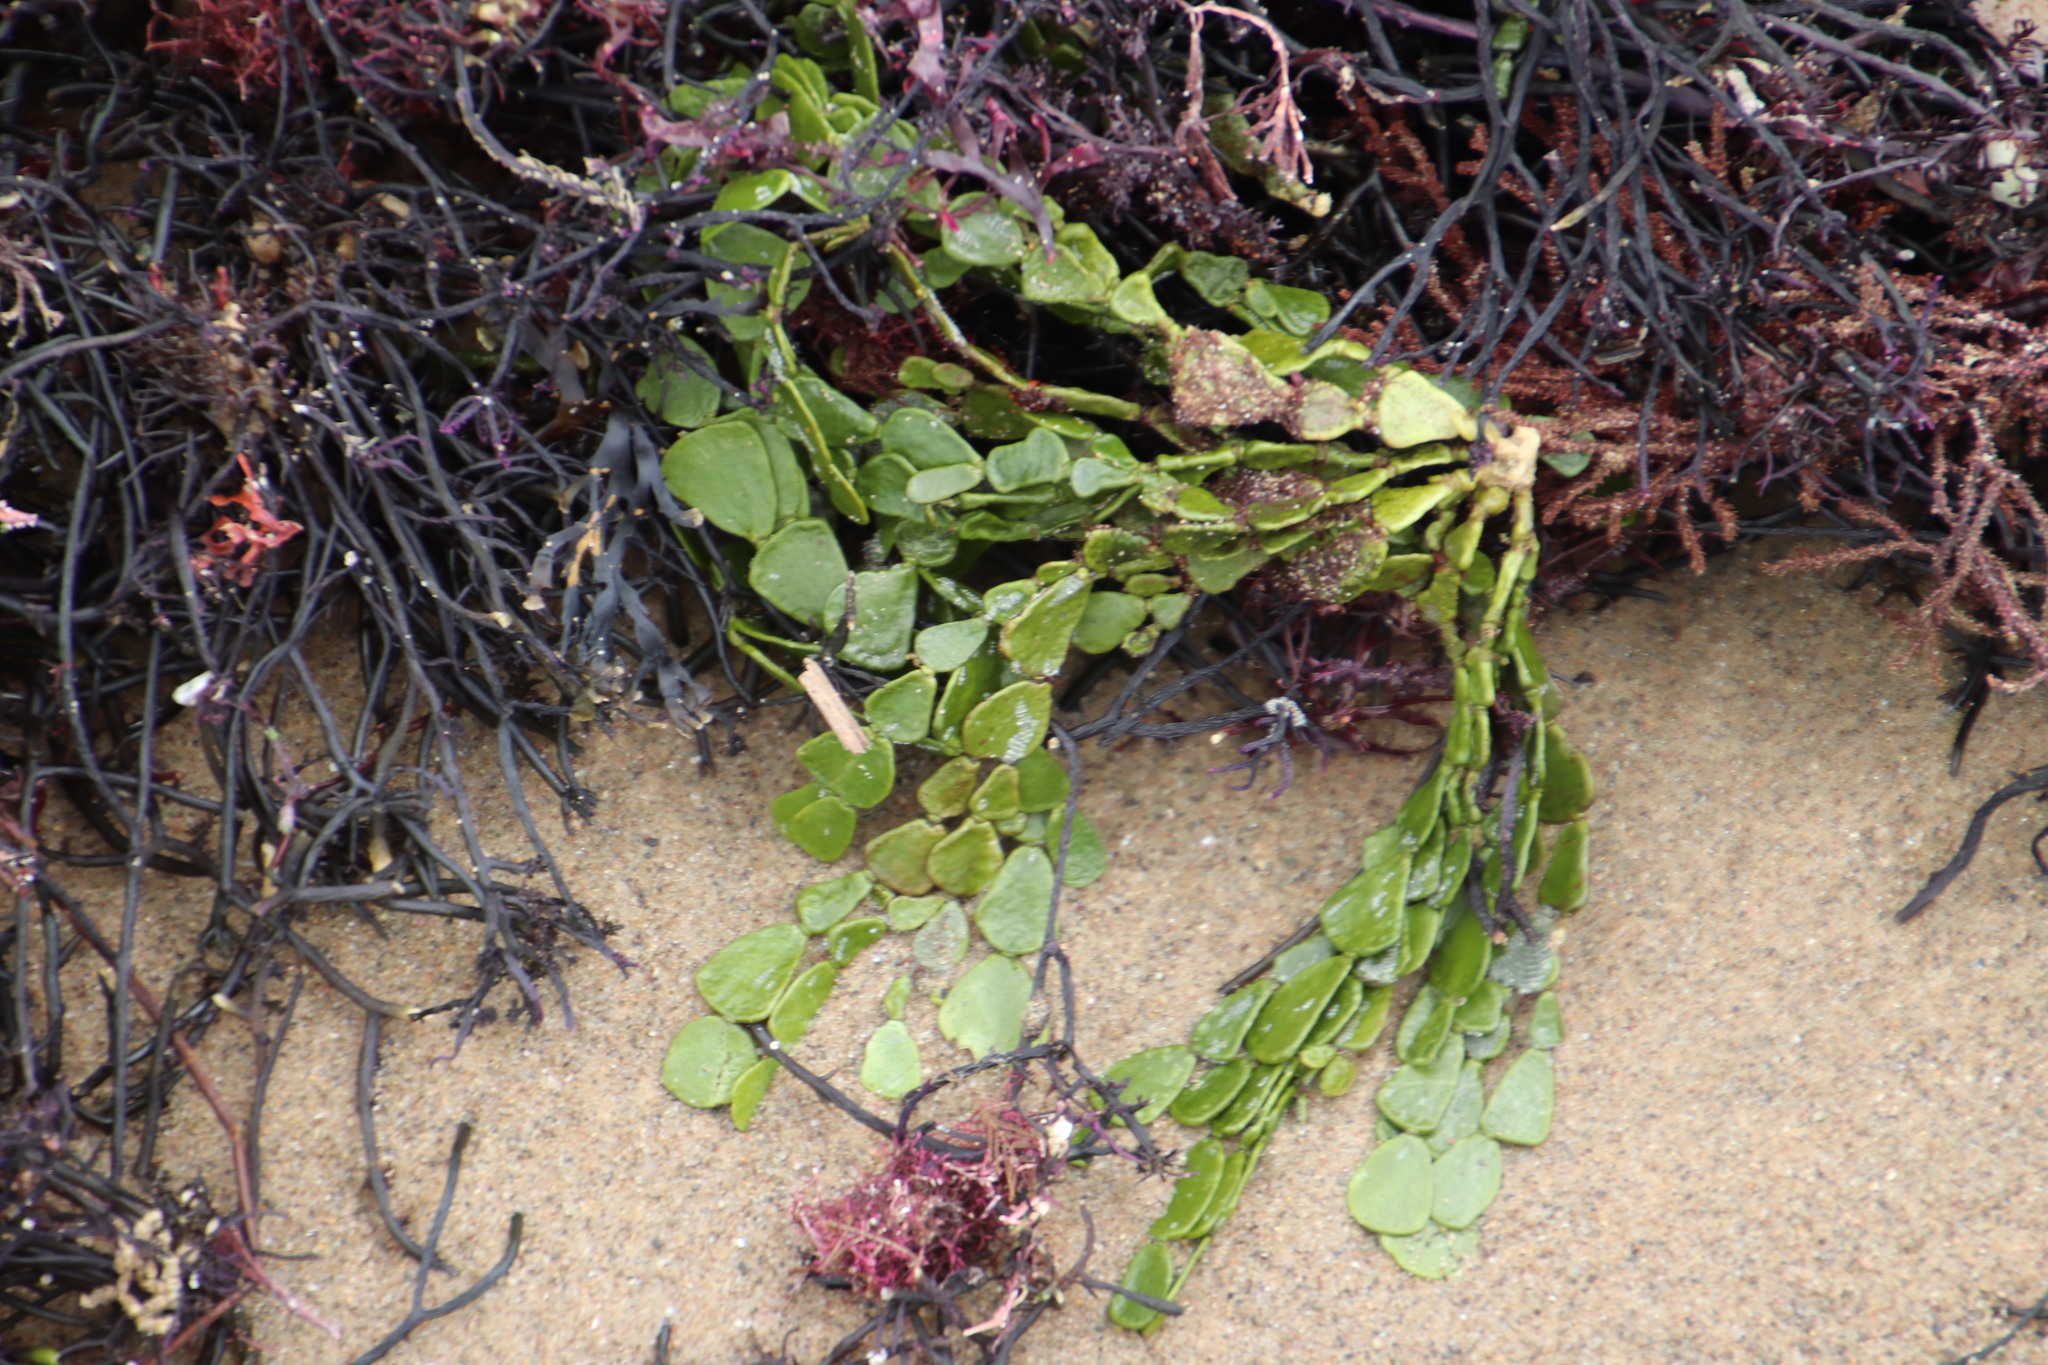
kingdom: Plantae
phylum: Chlorophyta
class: Ulvophyceae
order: Bryopsidales
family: Halimedaceae
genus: Halimeda
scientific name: Halimeda cuneata
